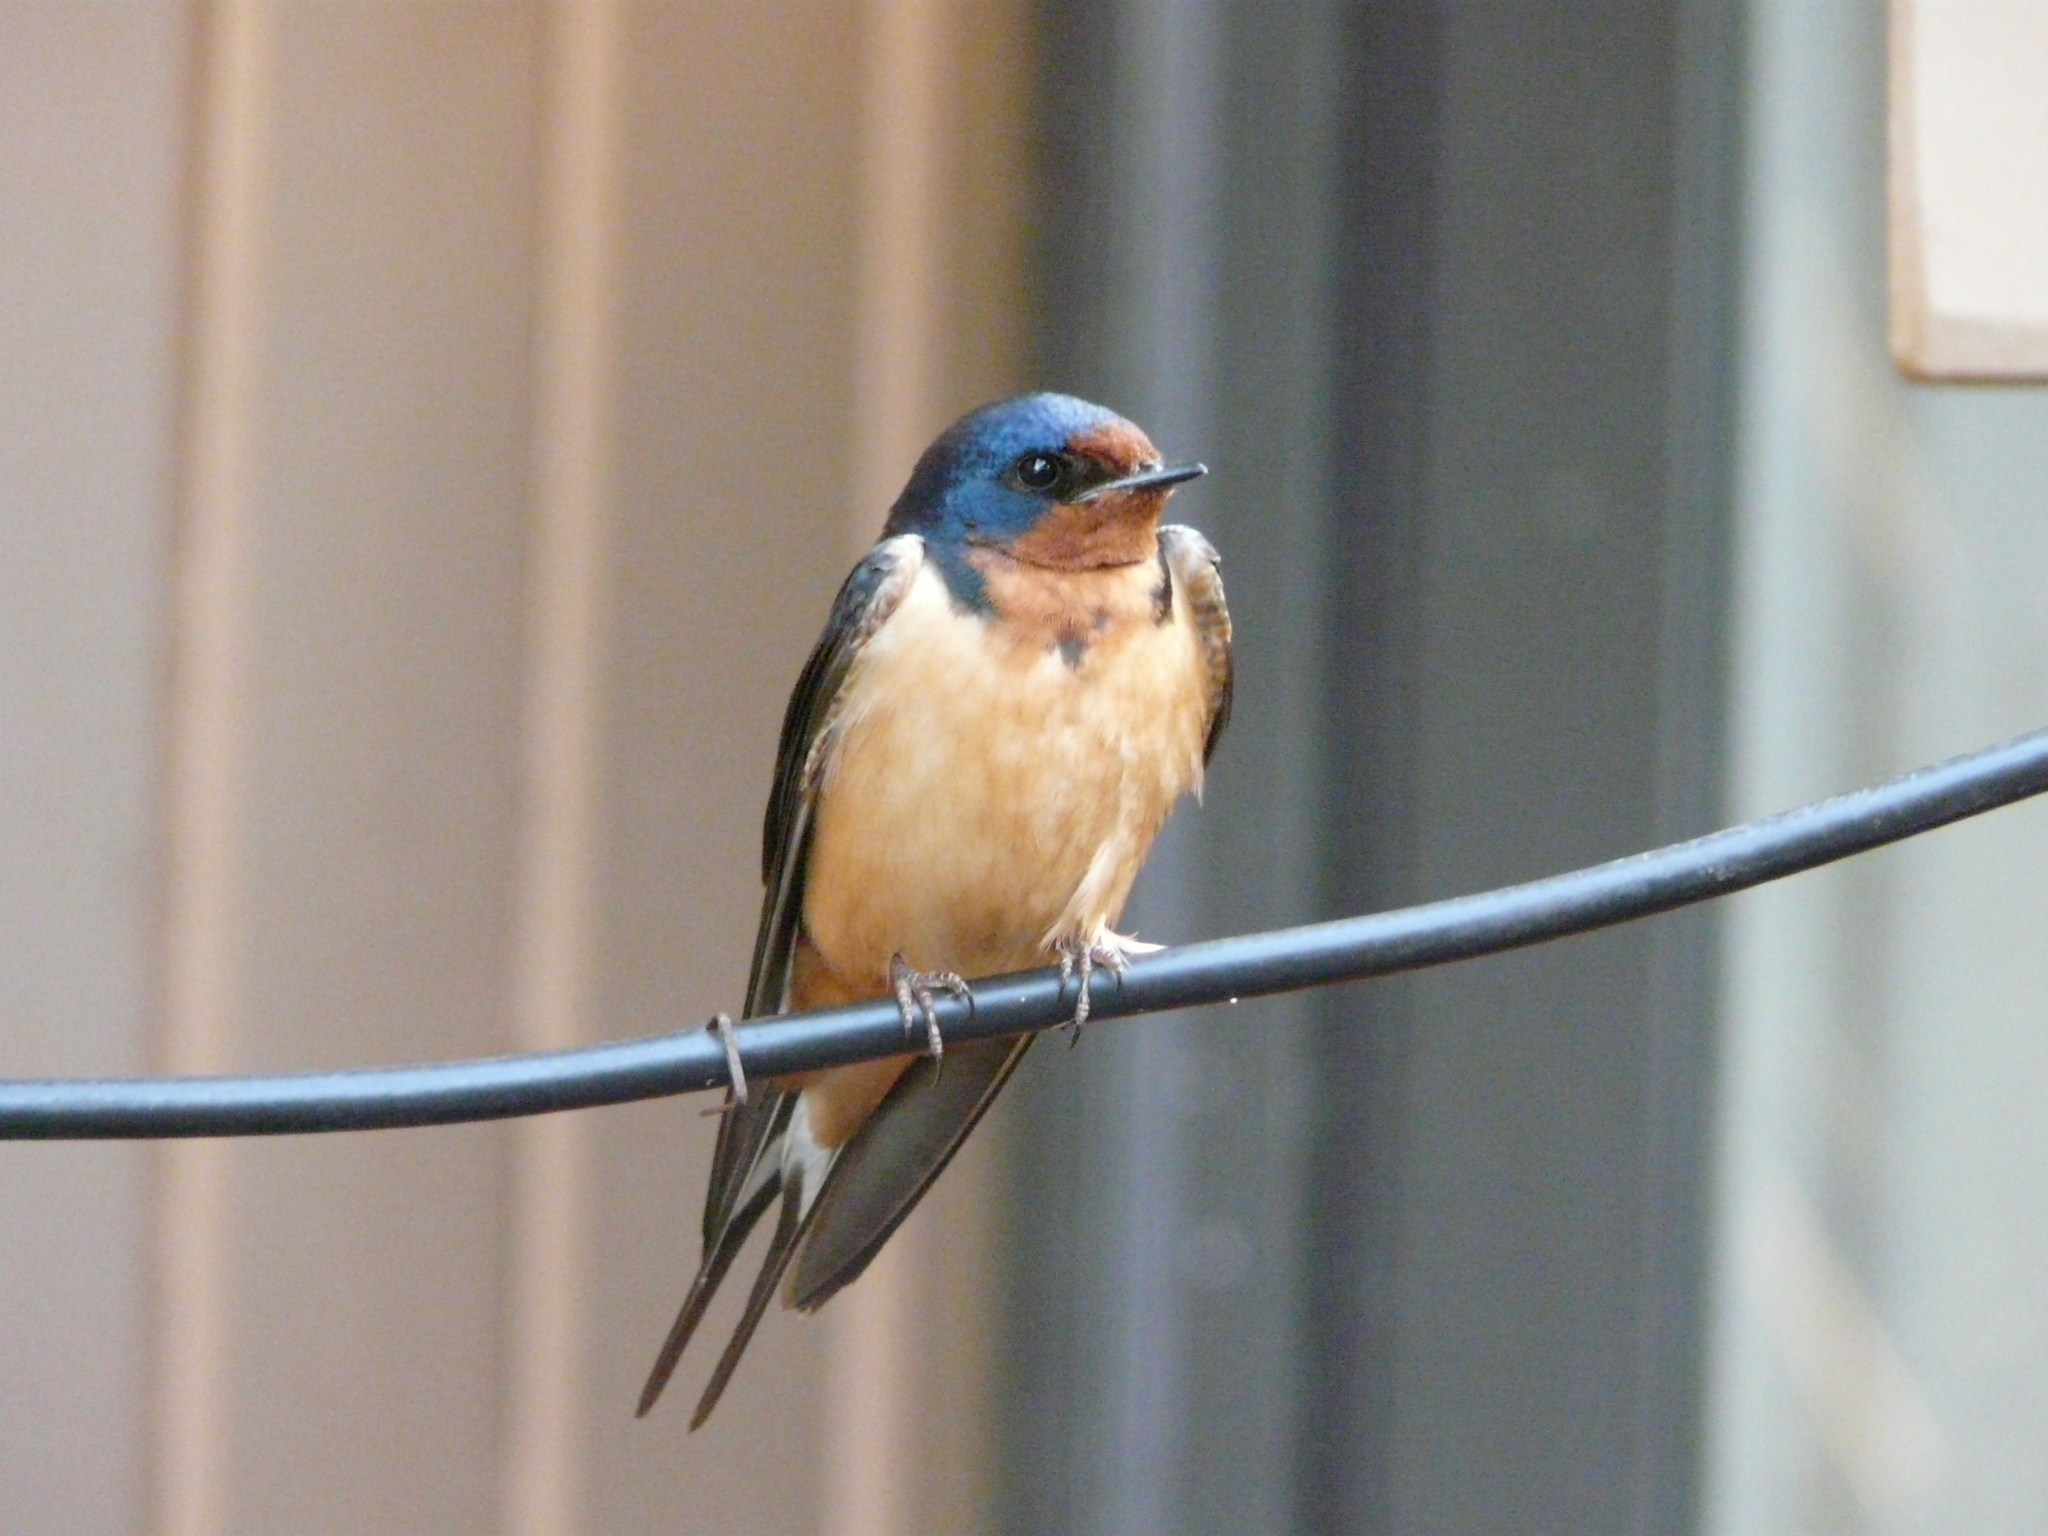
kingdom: Animalia
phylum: Chordata
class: Aves
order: Passeriformes
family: Hirundinidae
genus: Hirundo
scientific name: Hirundo rustica
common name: Barn swallow
